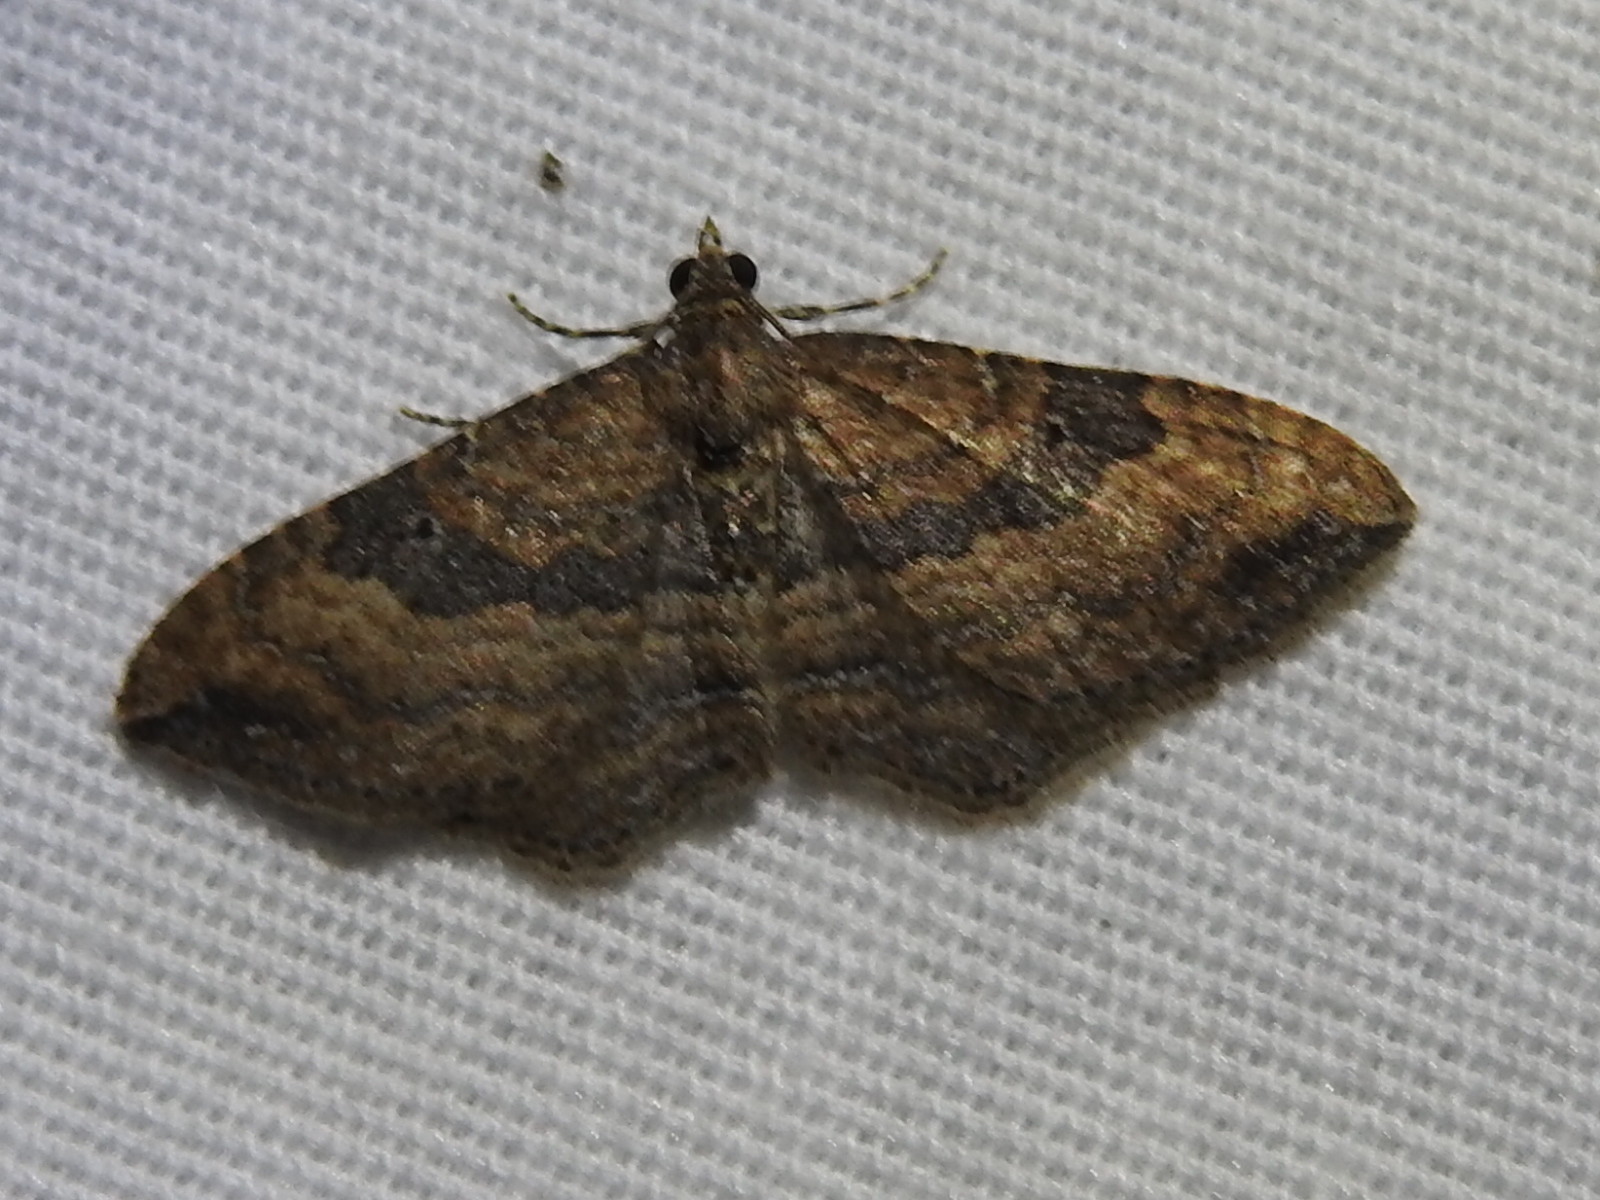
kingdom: Animalia
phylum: Arthropoda
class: Insecta
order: Lepidoptera
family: Geometridae
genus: Orthonama
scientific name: Orthonama obstipata
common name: The gem
